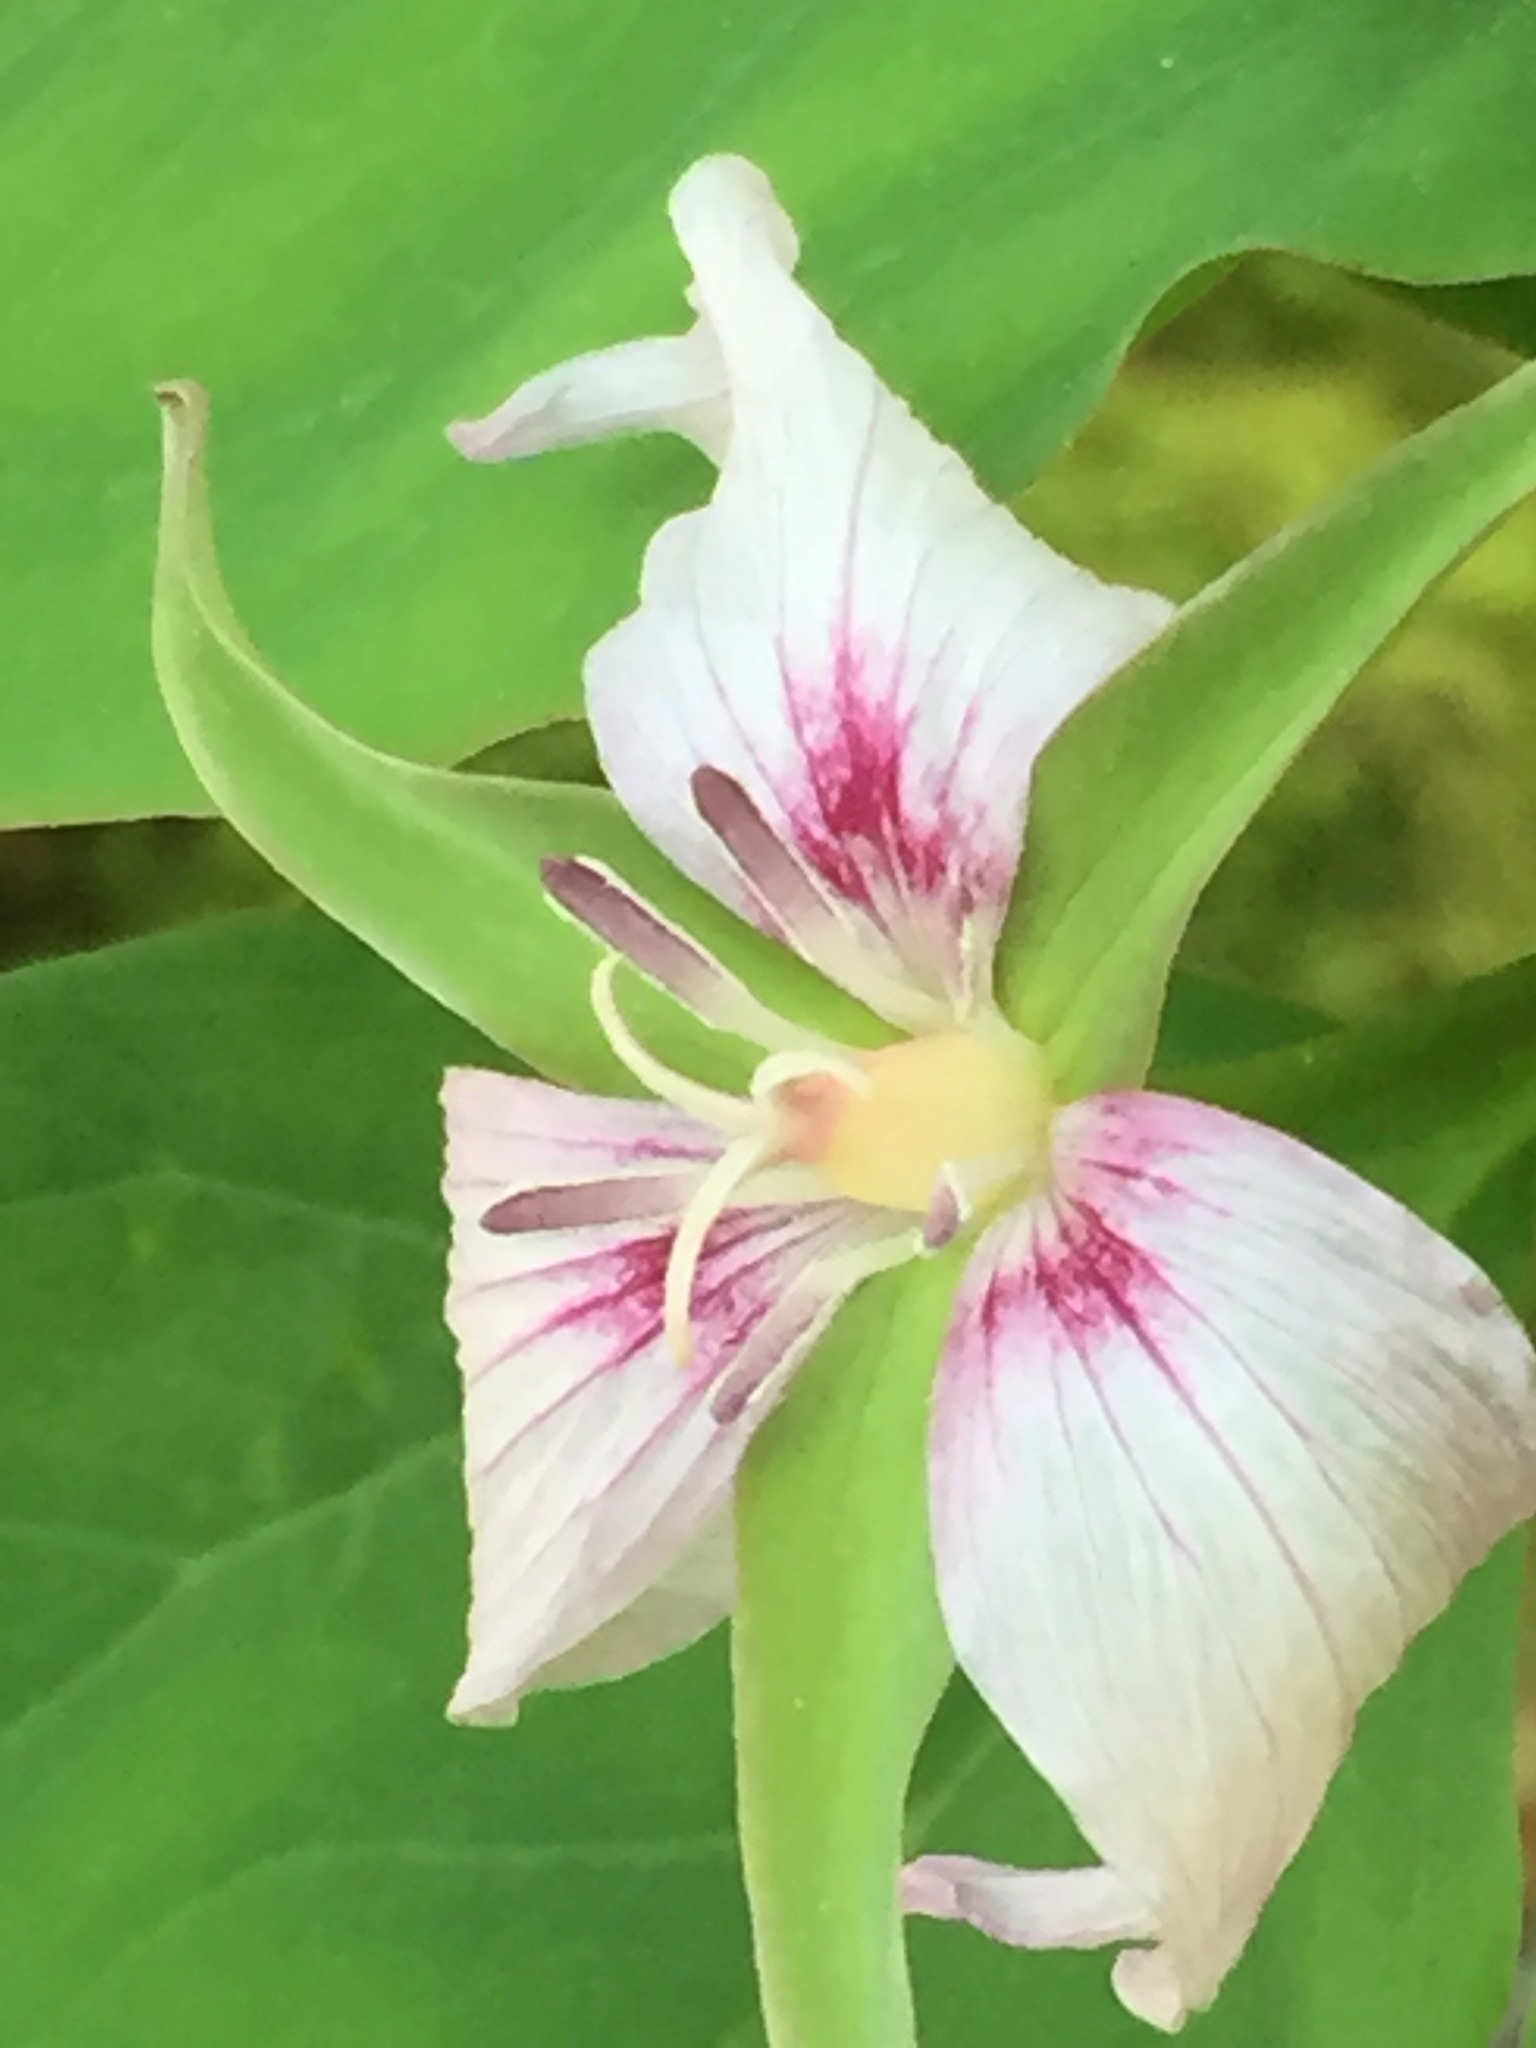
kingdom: Plantae
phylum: Tracheophyta
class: Liliopsida
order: Liliales
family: Melanthiaceae
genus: Trillium
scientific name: Trillium undulatum
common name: Paint trillium
